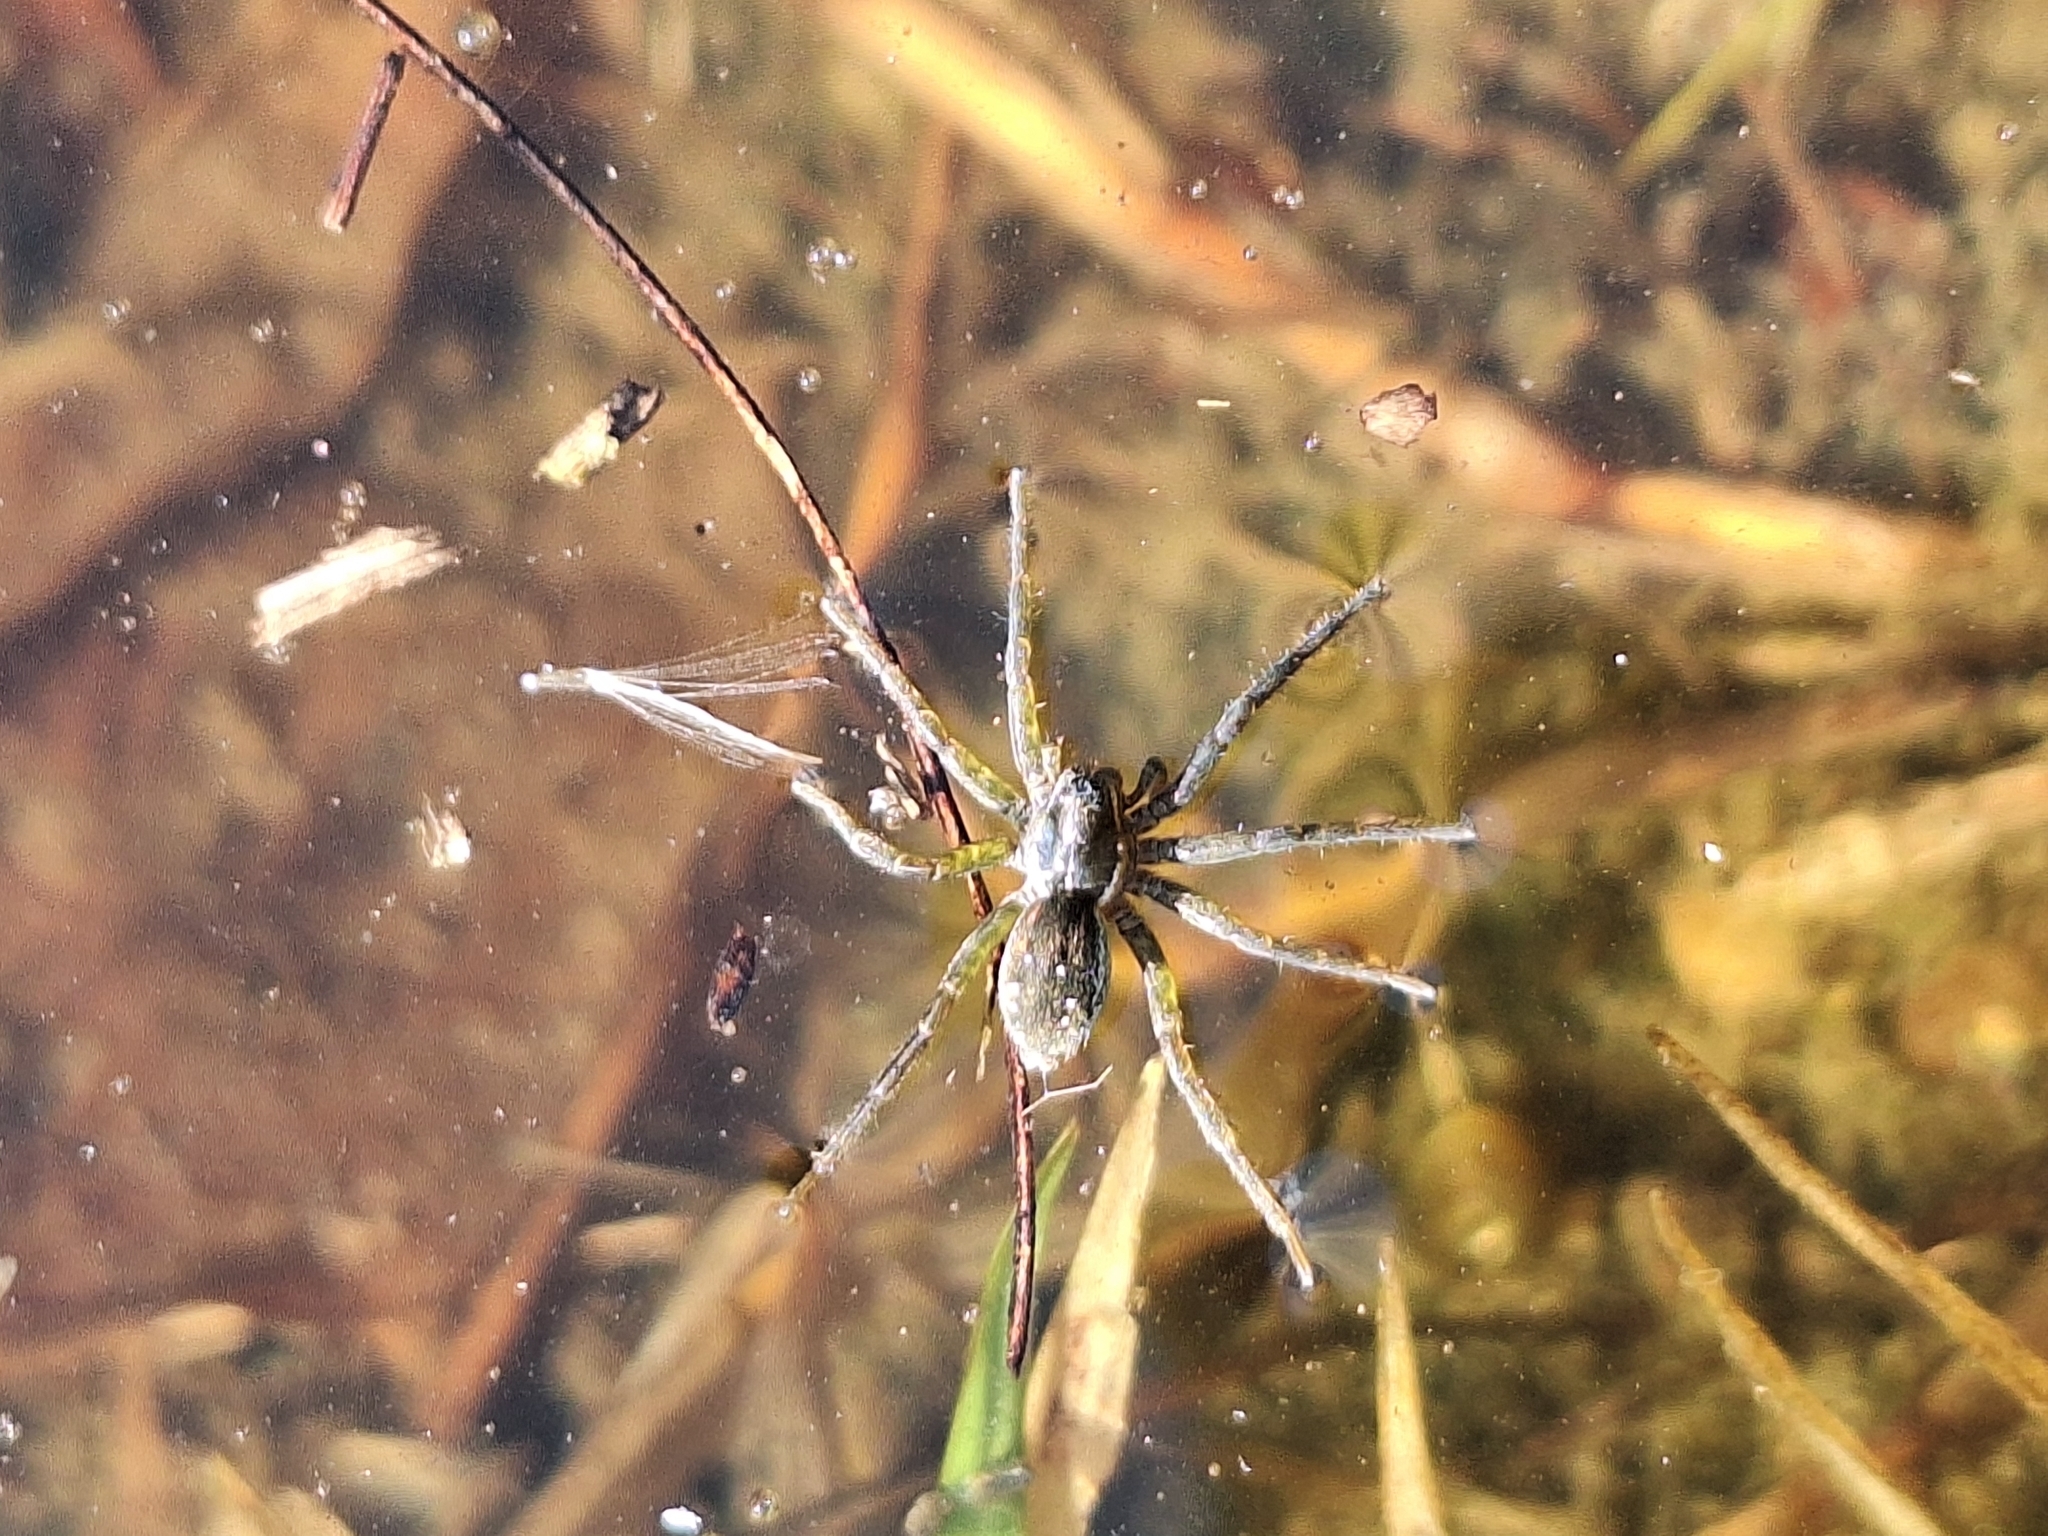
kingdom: Animalia
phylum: Arthropoda
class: Arachnida
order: Araneae
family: Lycosidae
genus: Diapontia
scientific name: Diapontia uruguayensis
